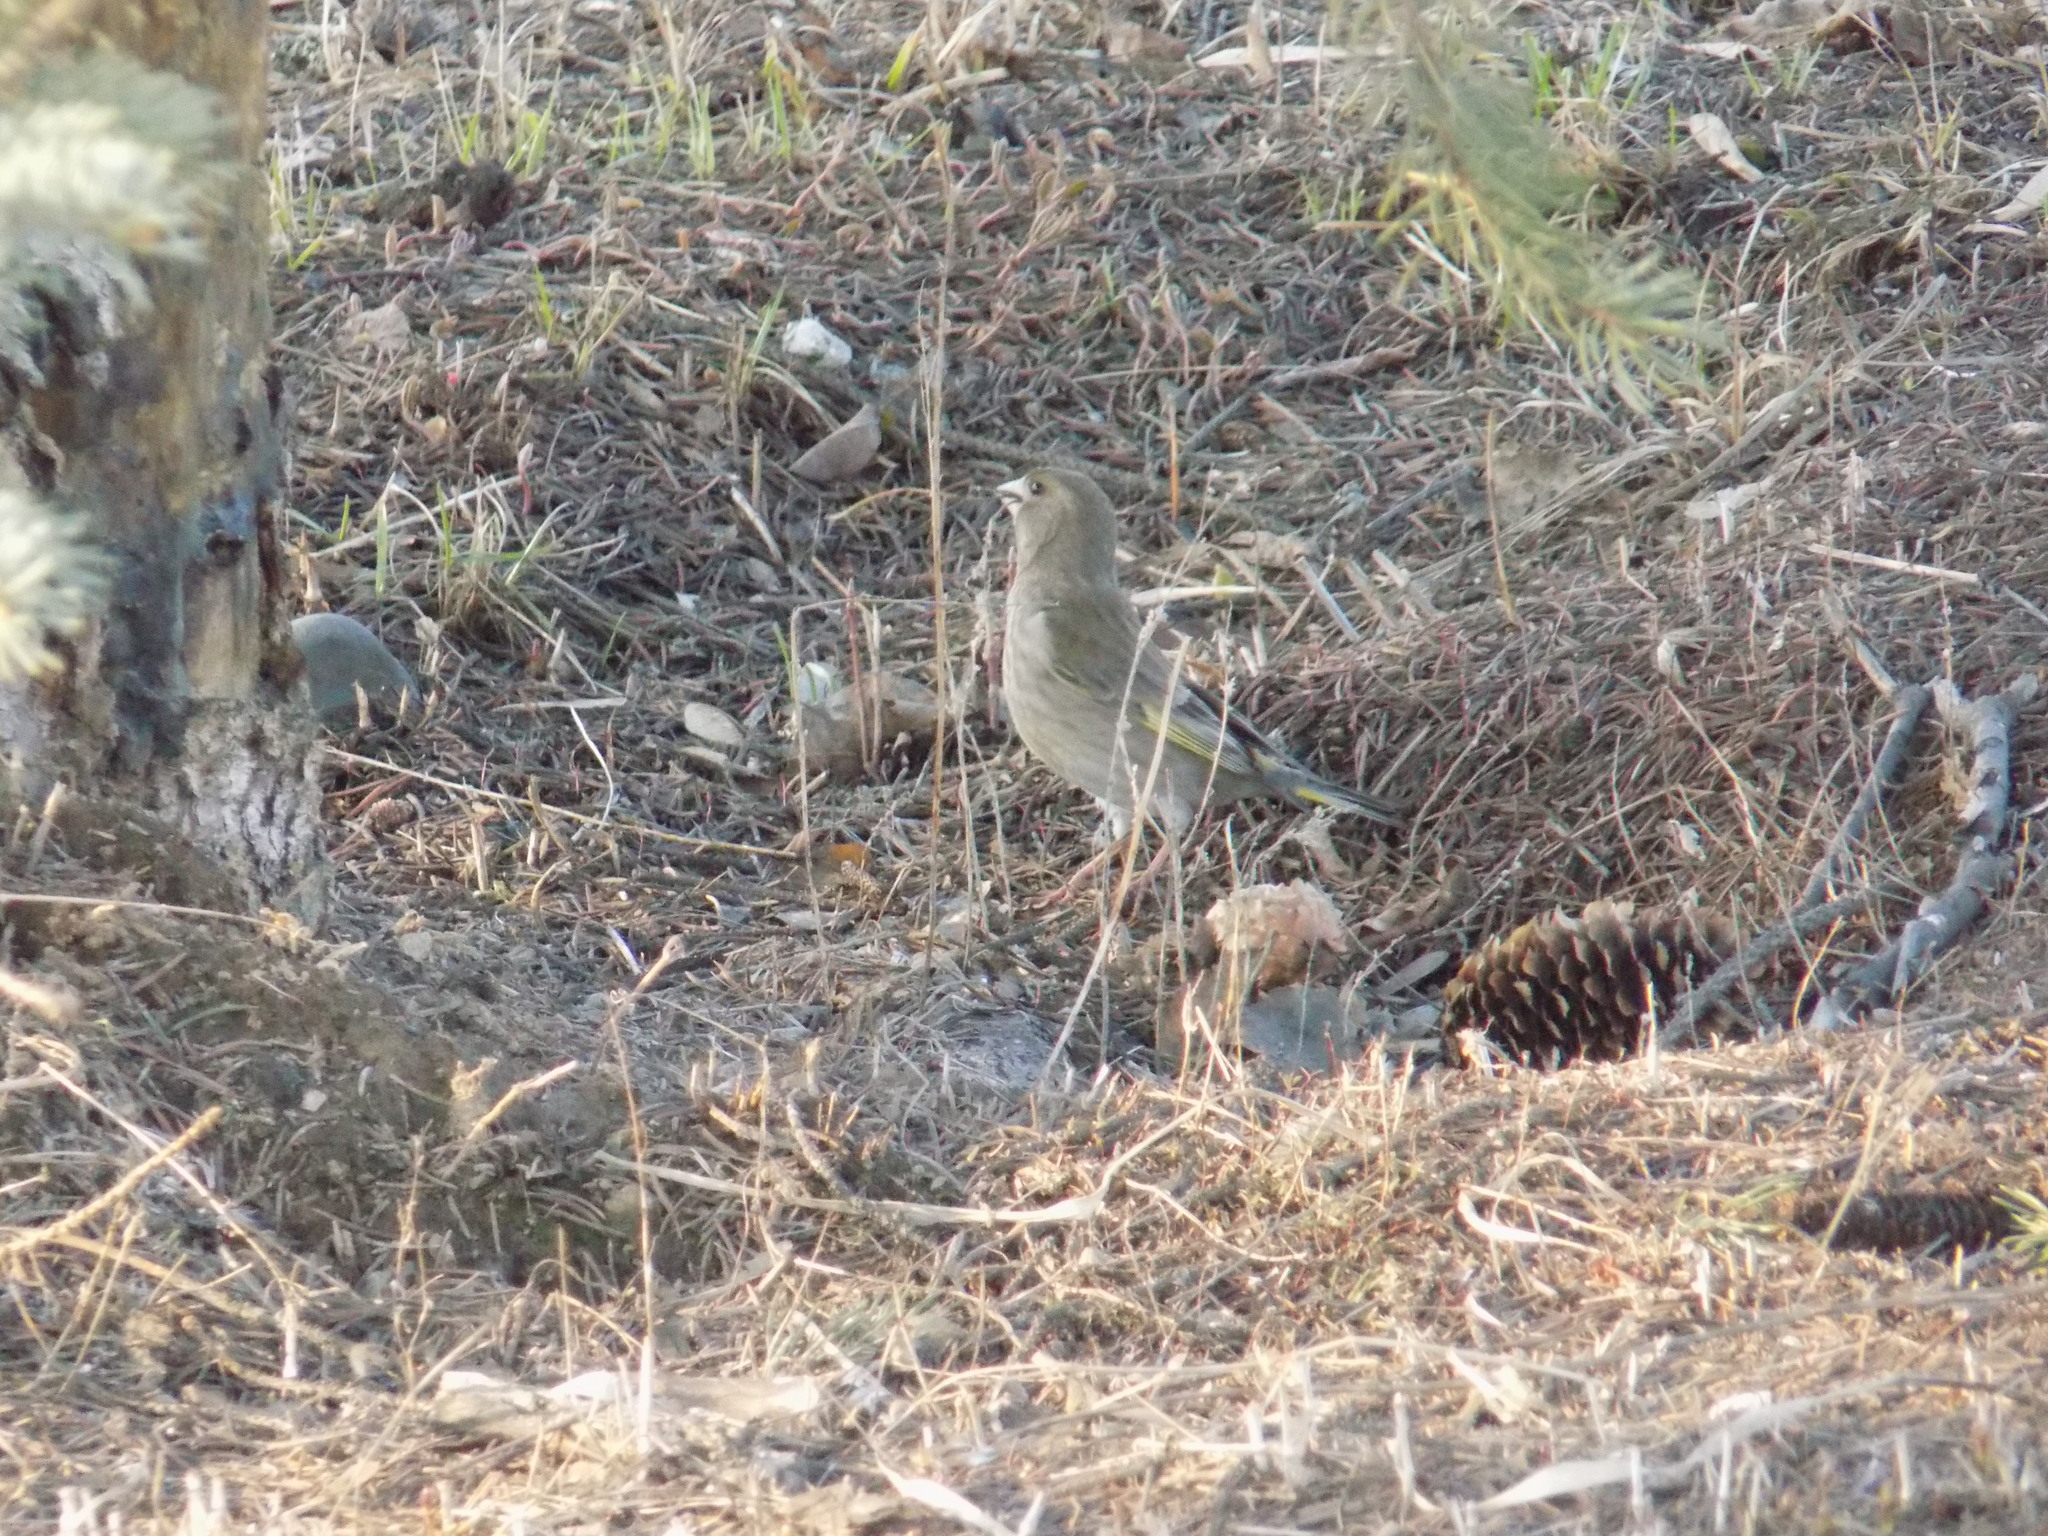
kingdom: Plantae
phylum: Tracheophyta
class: Liliopsida
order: Poales
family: Poaceae
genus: Chloris
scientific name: Chloris chloris
